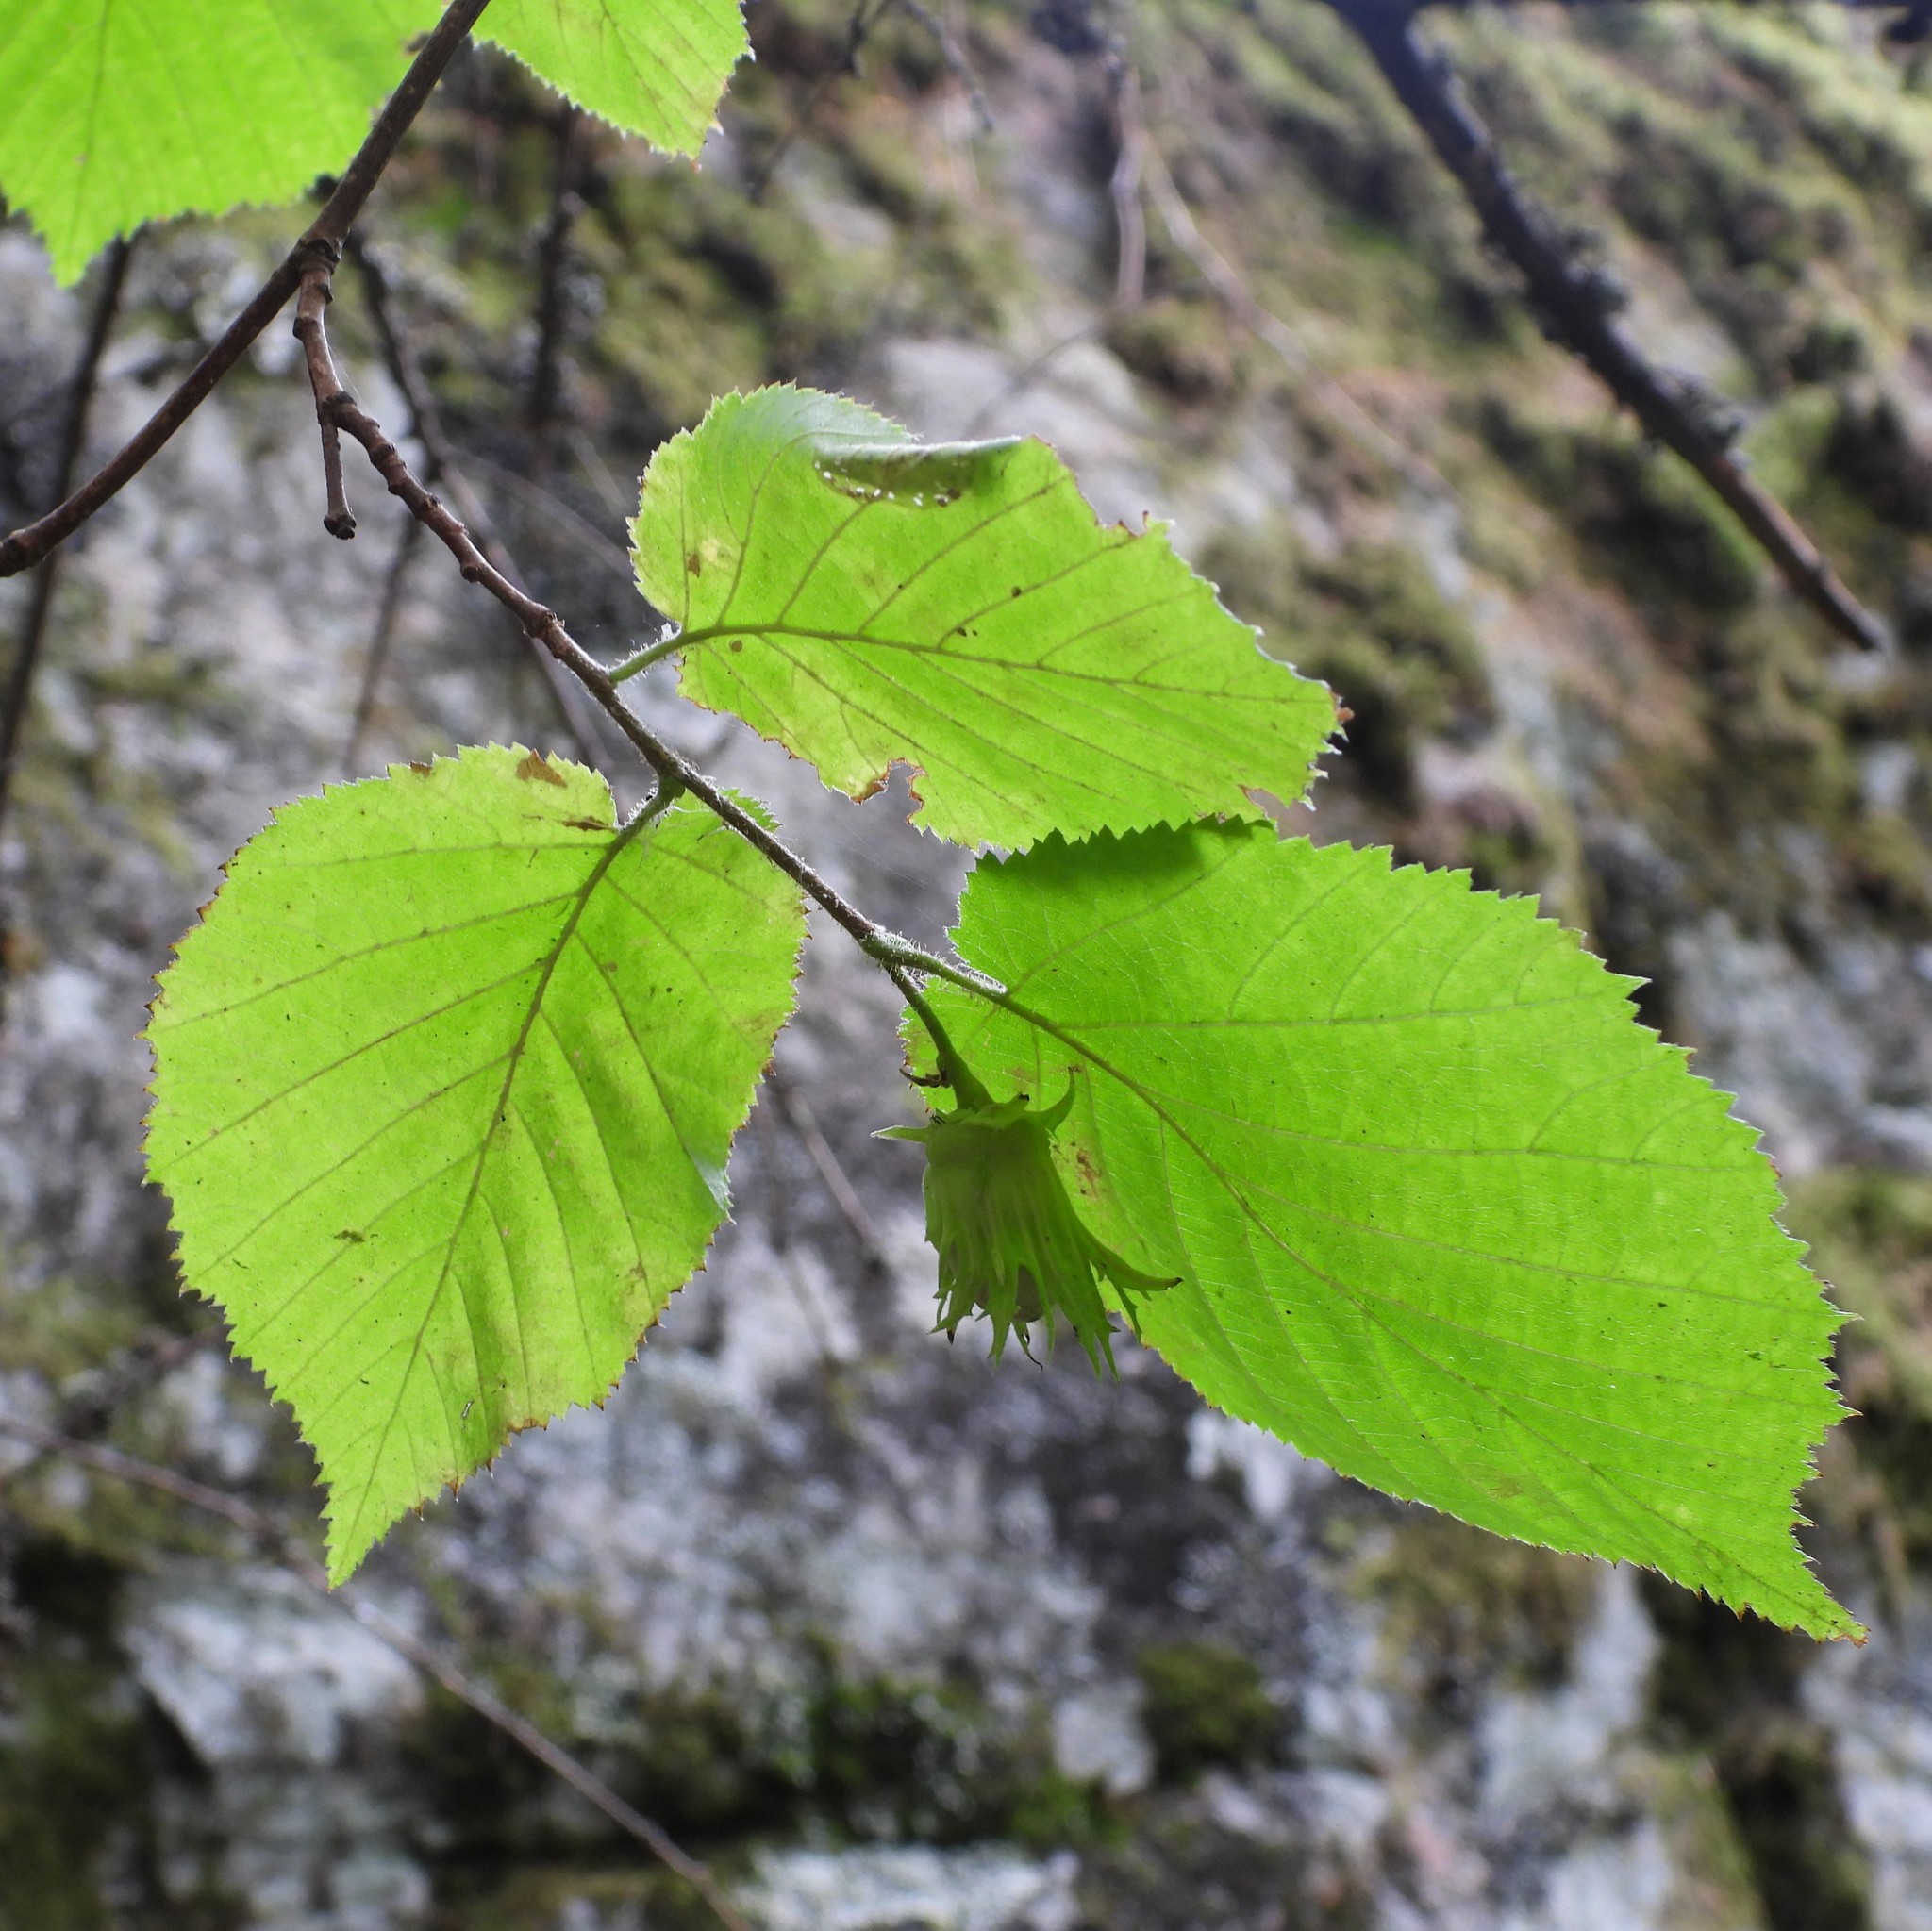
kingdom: Plantae
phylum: Tracheophyta
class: Magnoliopsida
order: Fagales
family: Betulaceae
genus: Corylus
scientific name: Corylus avellana
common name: European hazel
